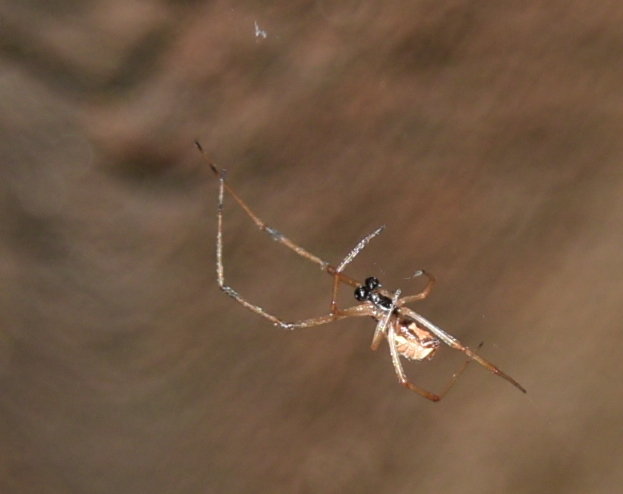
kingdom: Animalia
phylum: Arthropoda
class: Arachnida
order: Araneae
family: Theridiidae
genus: Latrodectus
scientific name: Latrodectus geometricus
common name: Brown widow spider
